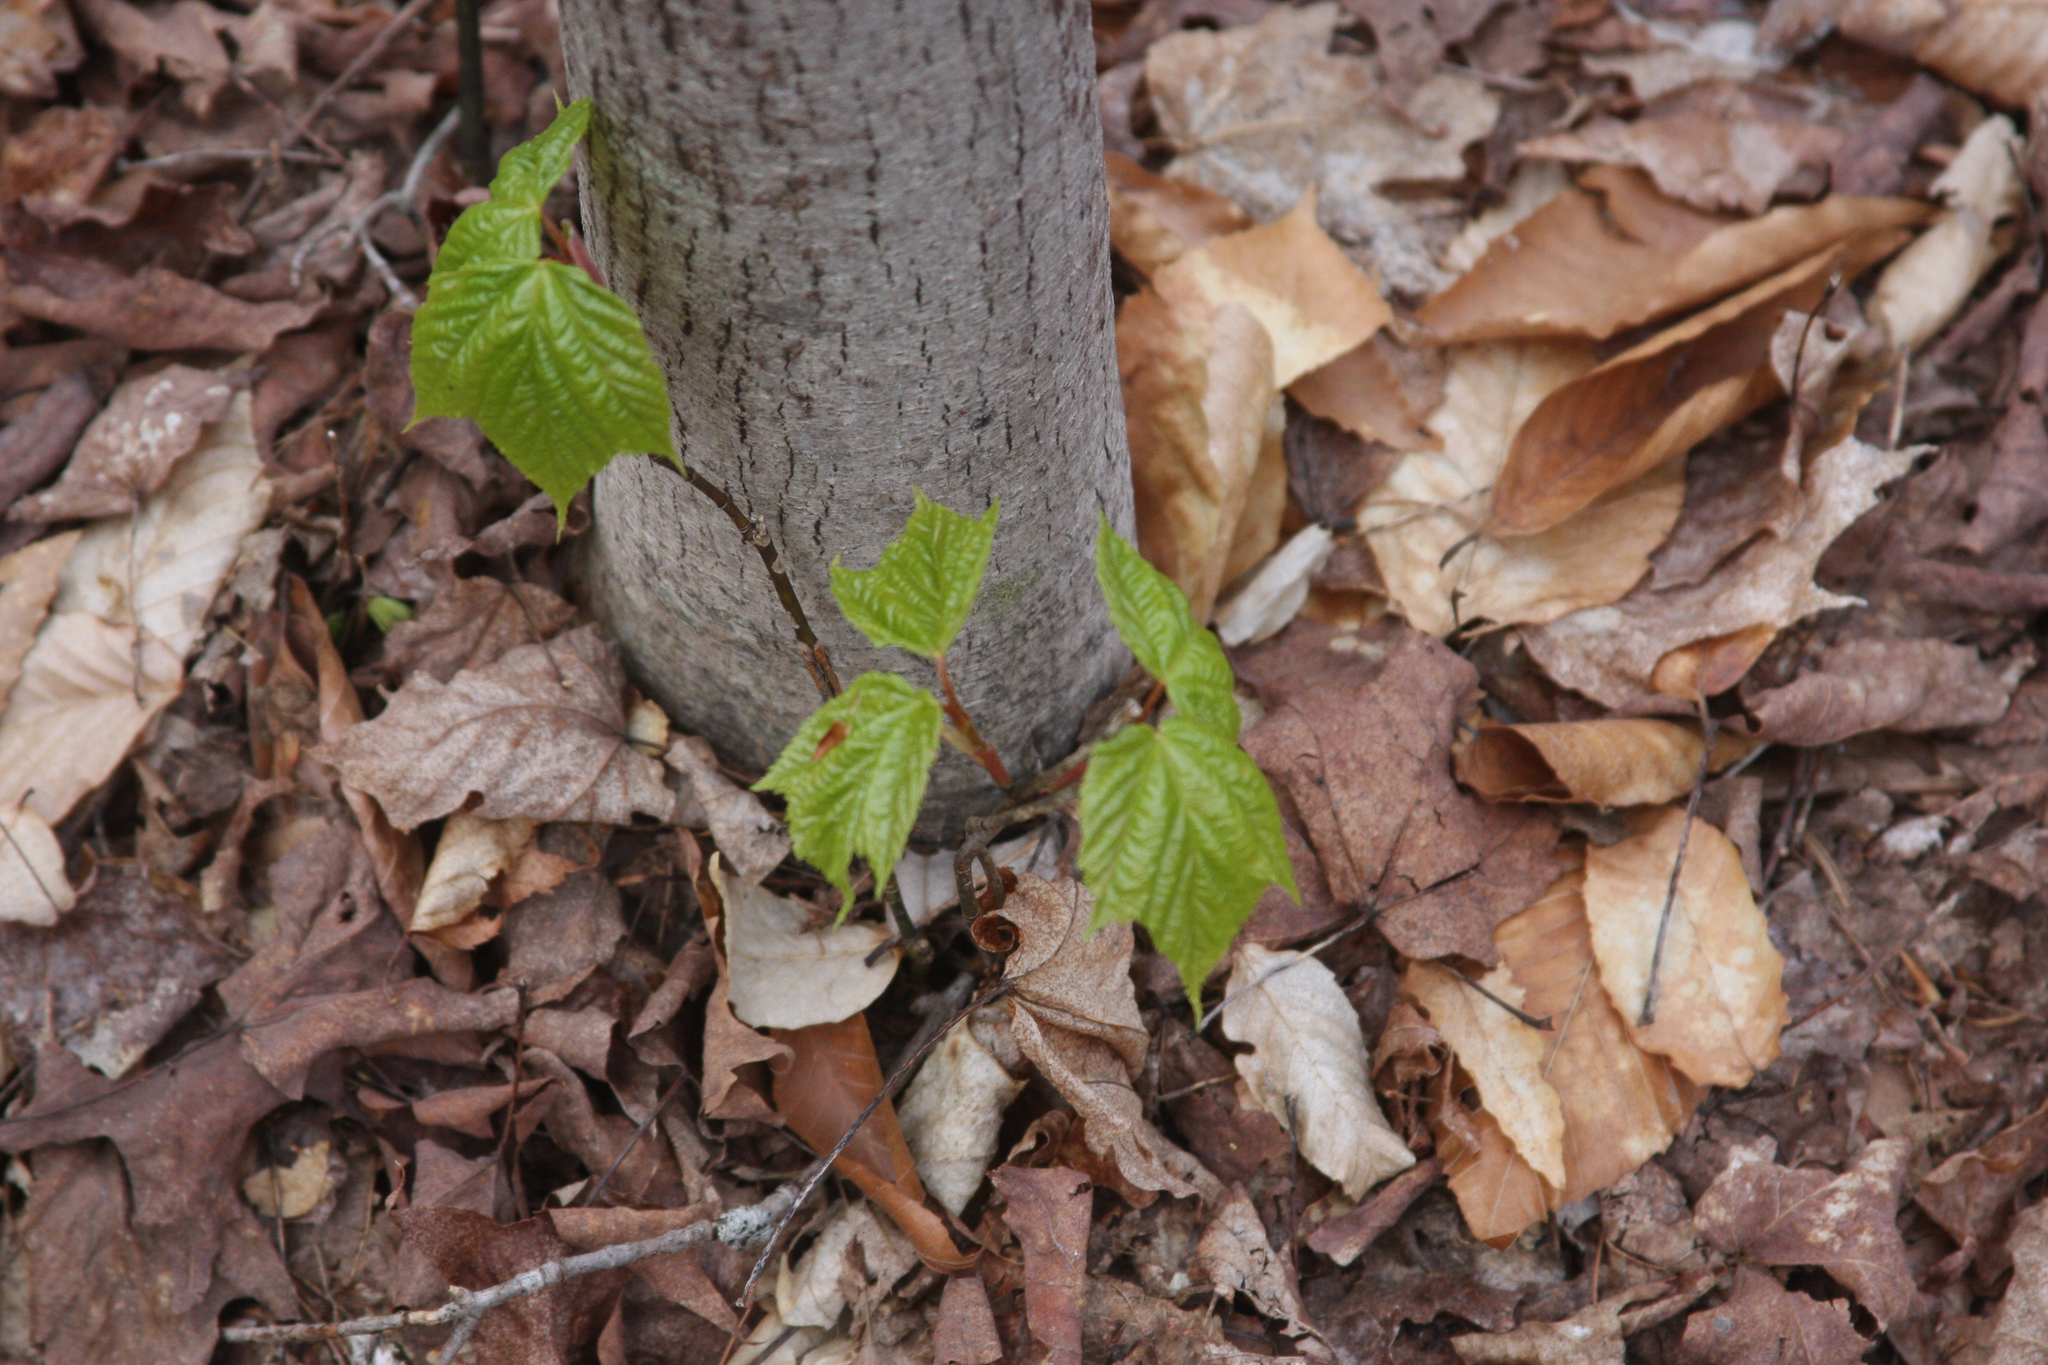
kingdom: Plantae
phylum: Tracheophyta
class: Magnoliopsida
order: Sapindales
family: Sapindaceae
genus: Acer
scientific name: Acer pensylvanicum
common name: Moosewood
